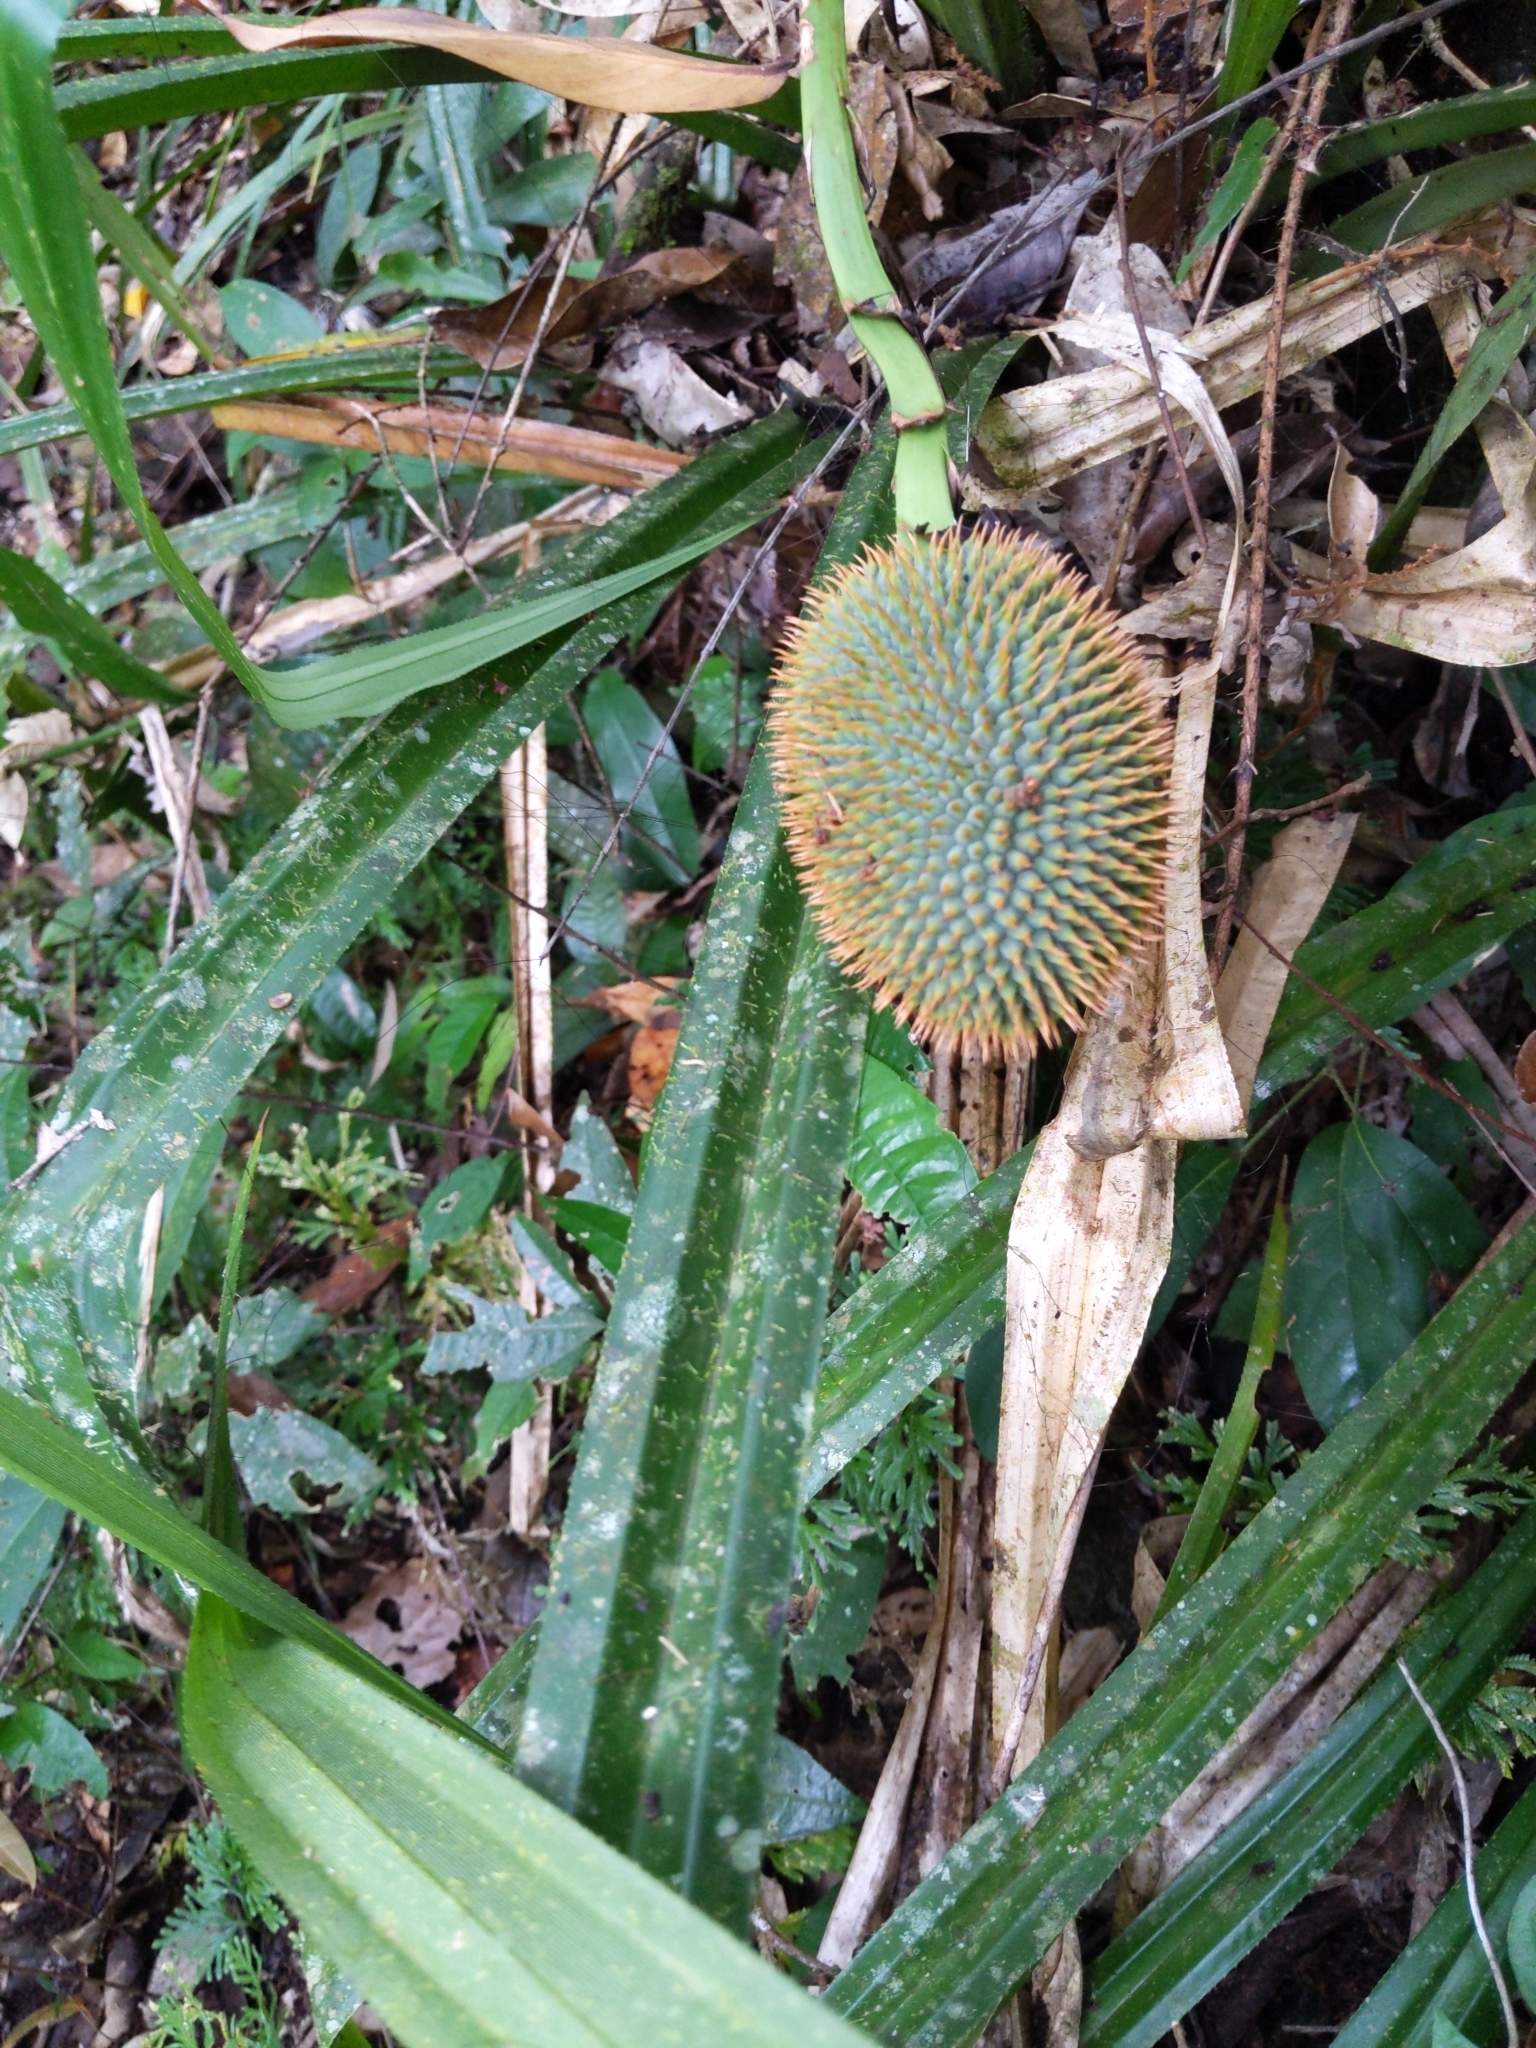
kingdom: Plantae
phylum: Tracheophyta
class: Liliopsida
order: Pandanales
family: Pandanaceae
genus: Benstonea
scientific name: Benstonea monticola
